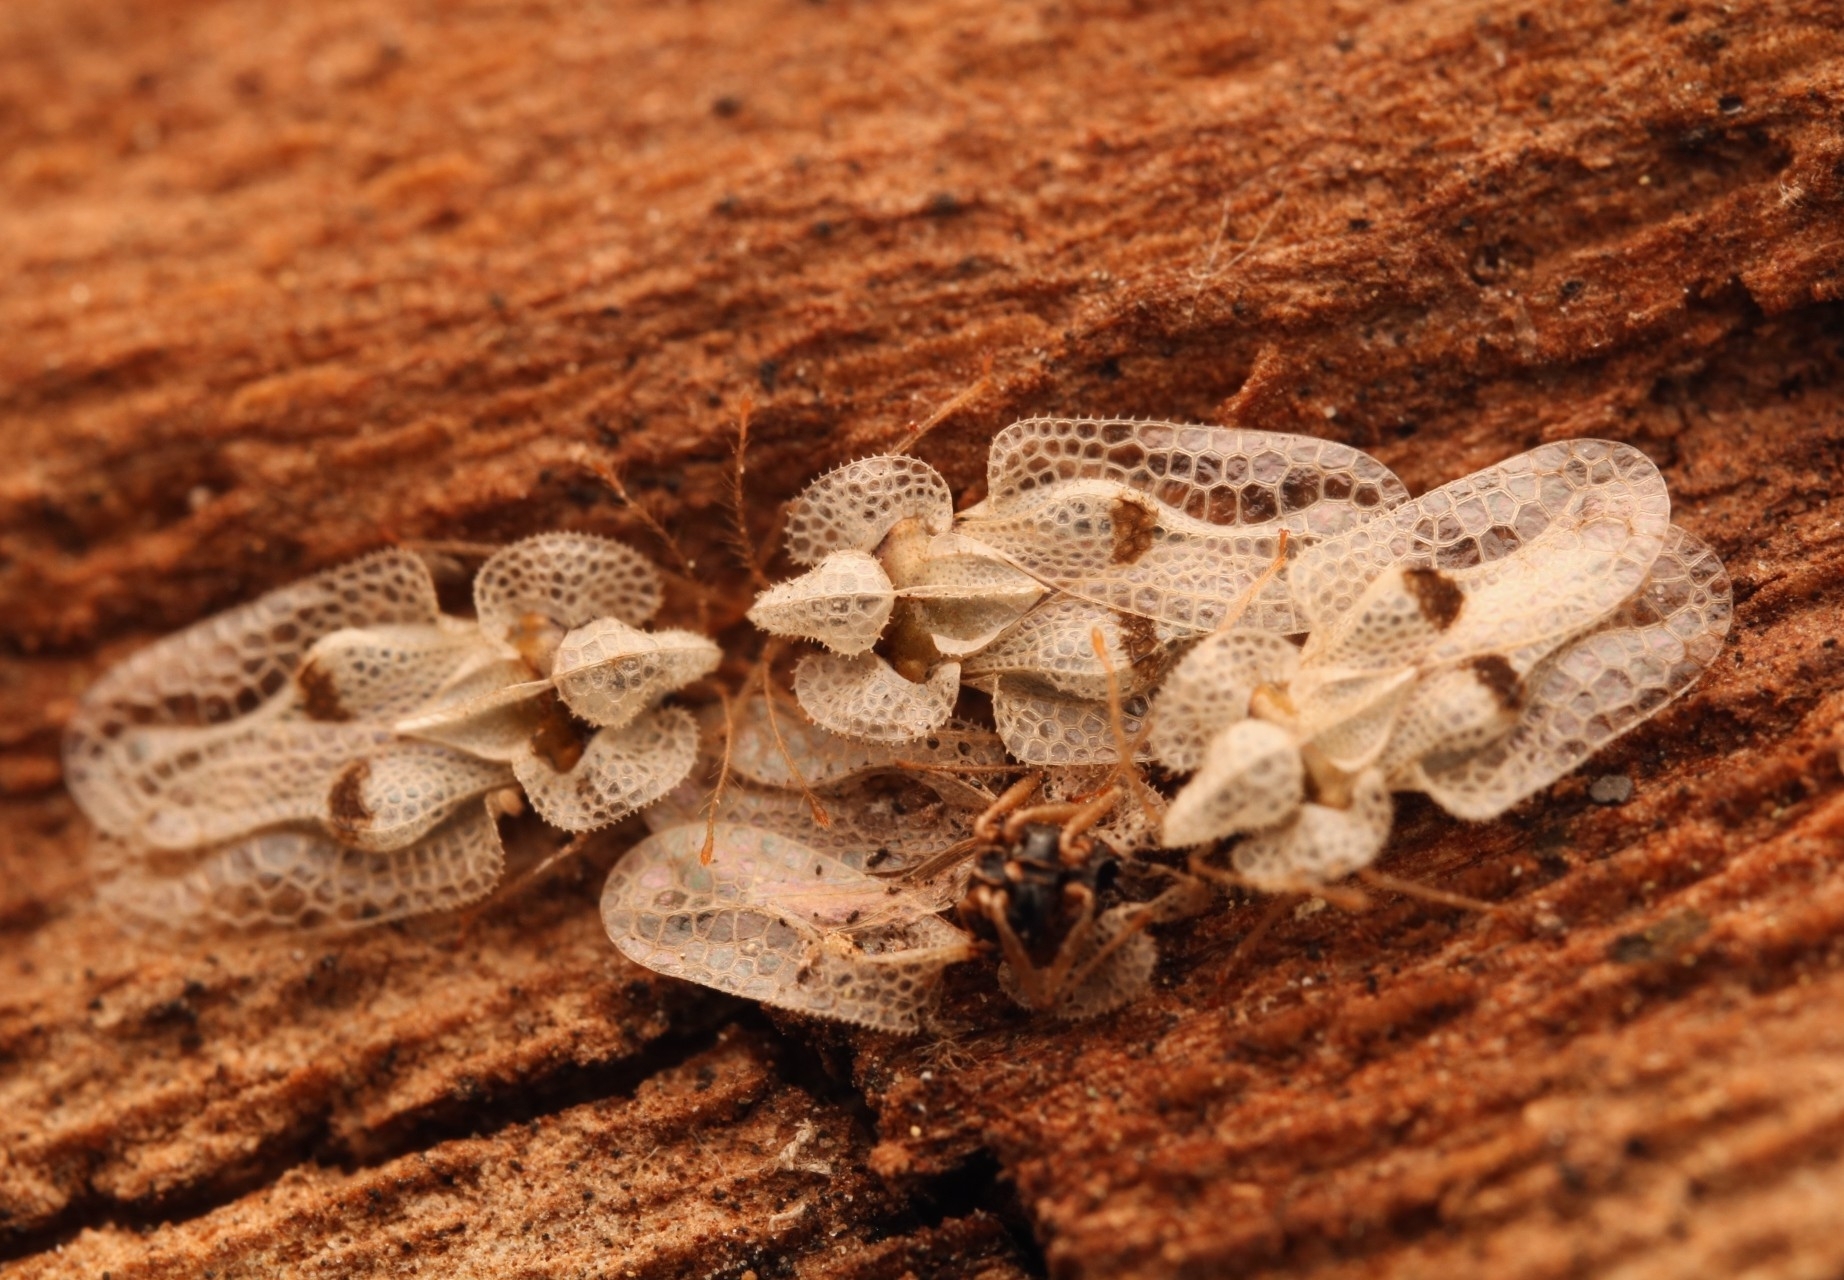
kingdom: Animalia
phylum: Arthropoda
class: Insecta
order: Hemiptera
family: Tingidae
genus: Corythucha
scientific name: Corythucha ciliata
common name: Sycamore lace bug
